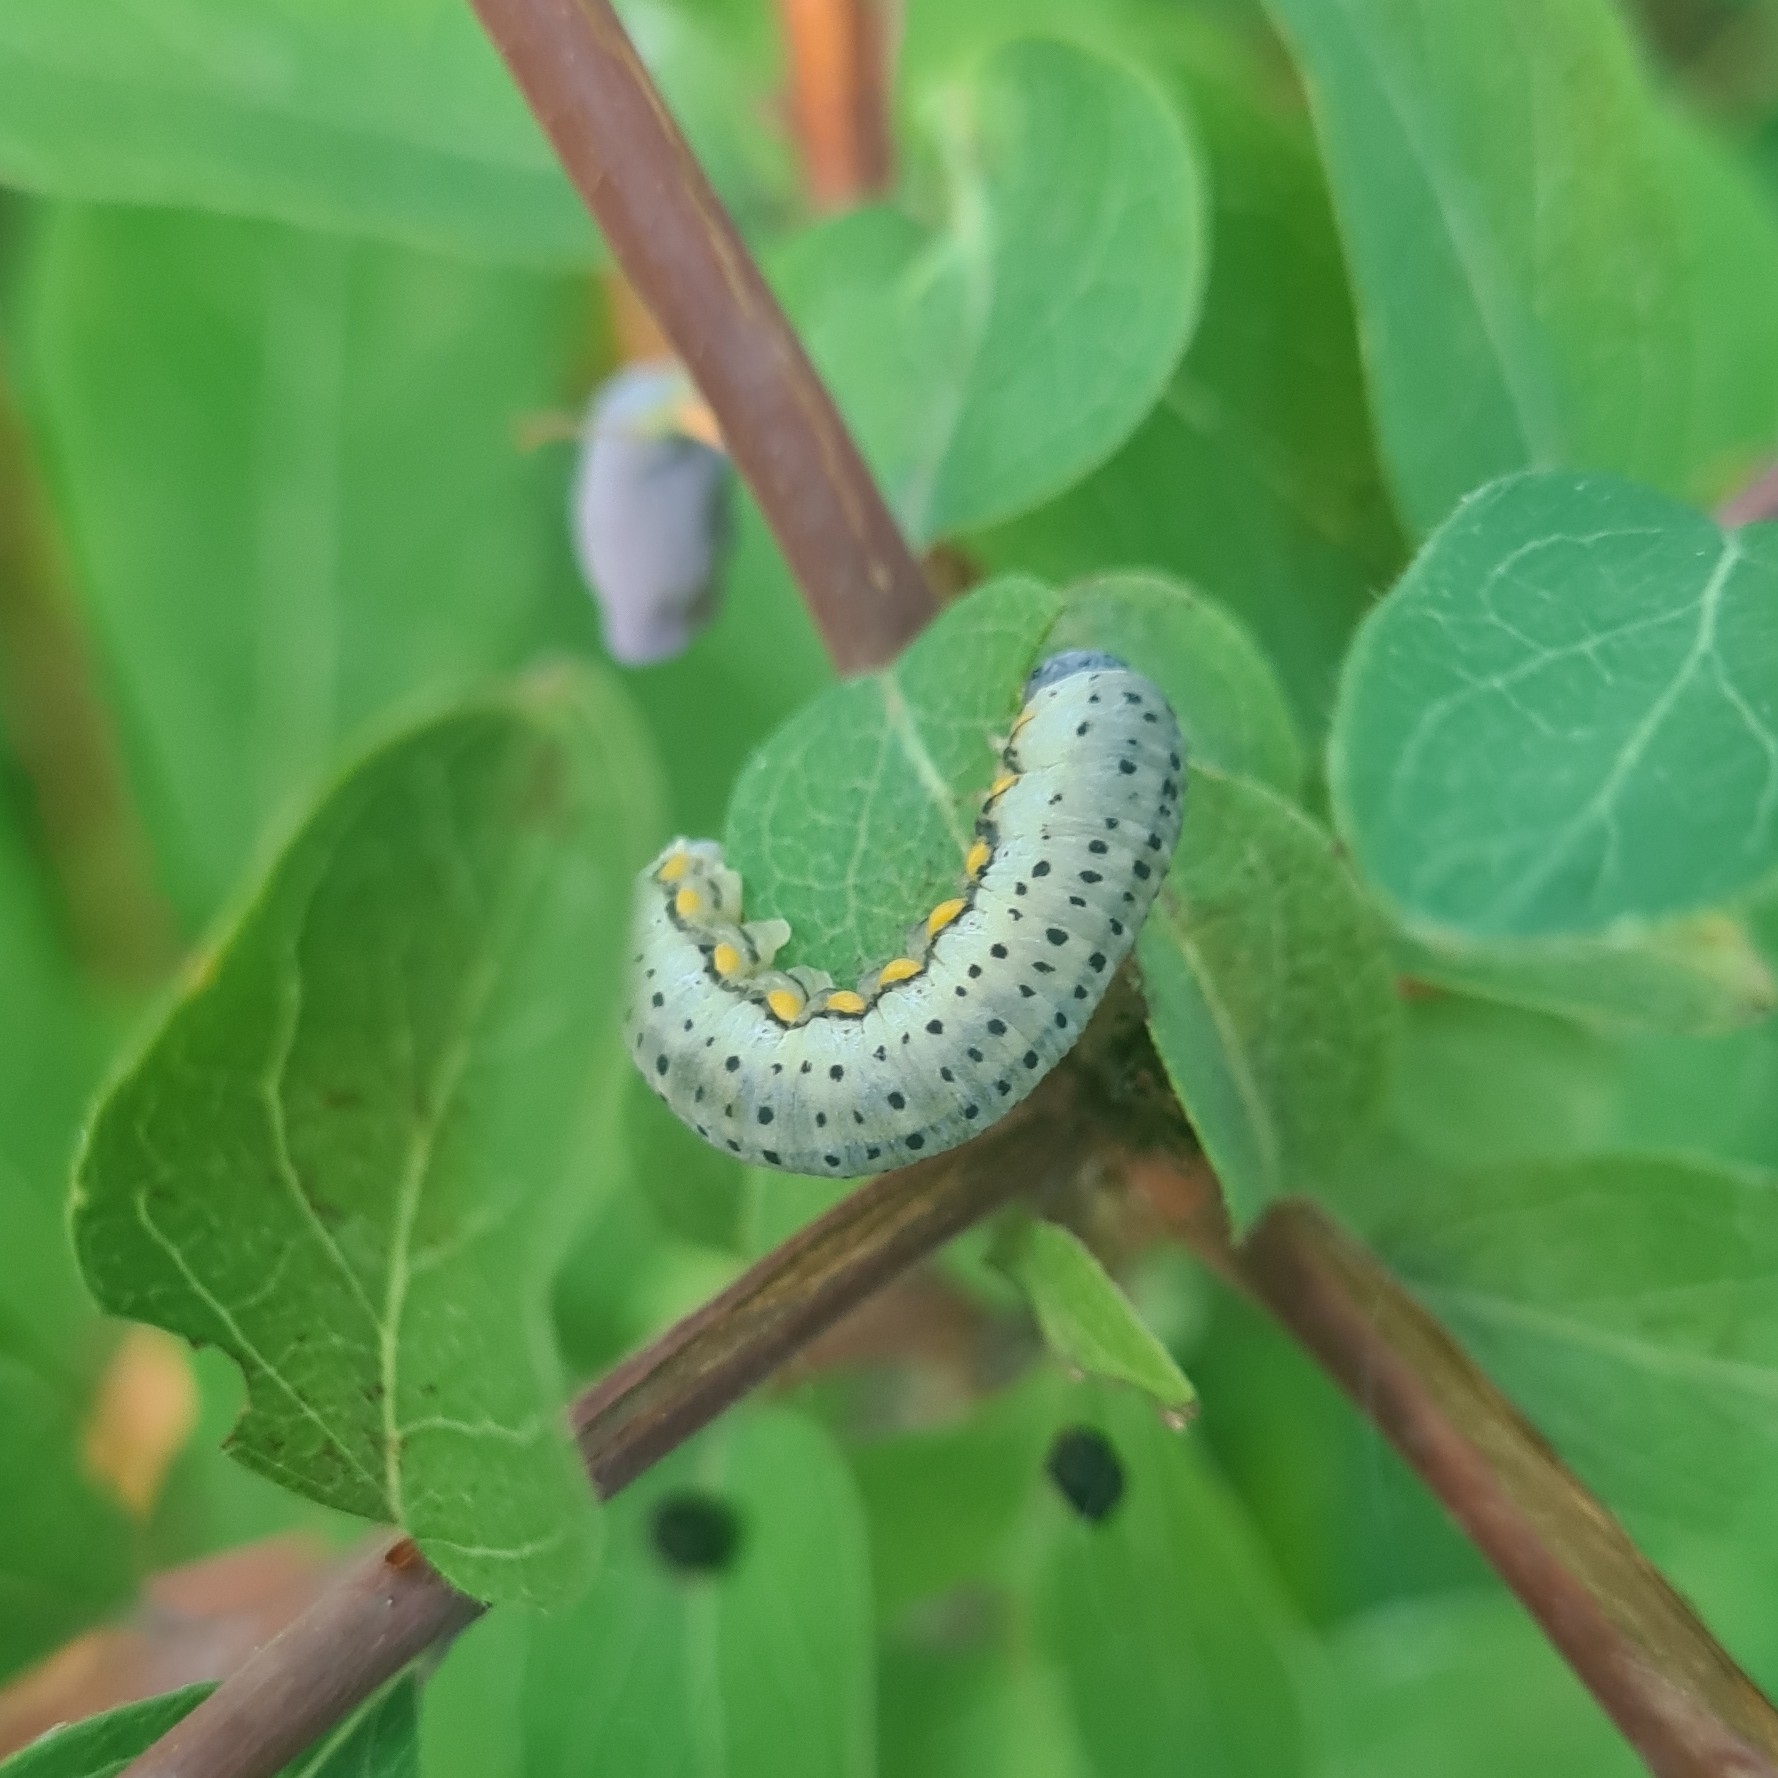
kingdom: Animalia
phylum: Arthropoda
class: Insecta
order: Hymenoptera
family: Cimbicidae
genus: Abia
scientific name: Abia fasciata
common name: Banded honeysuckle sawfly
